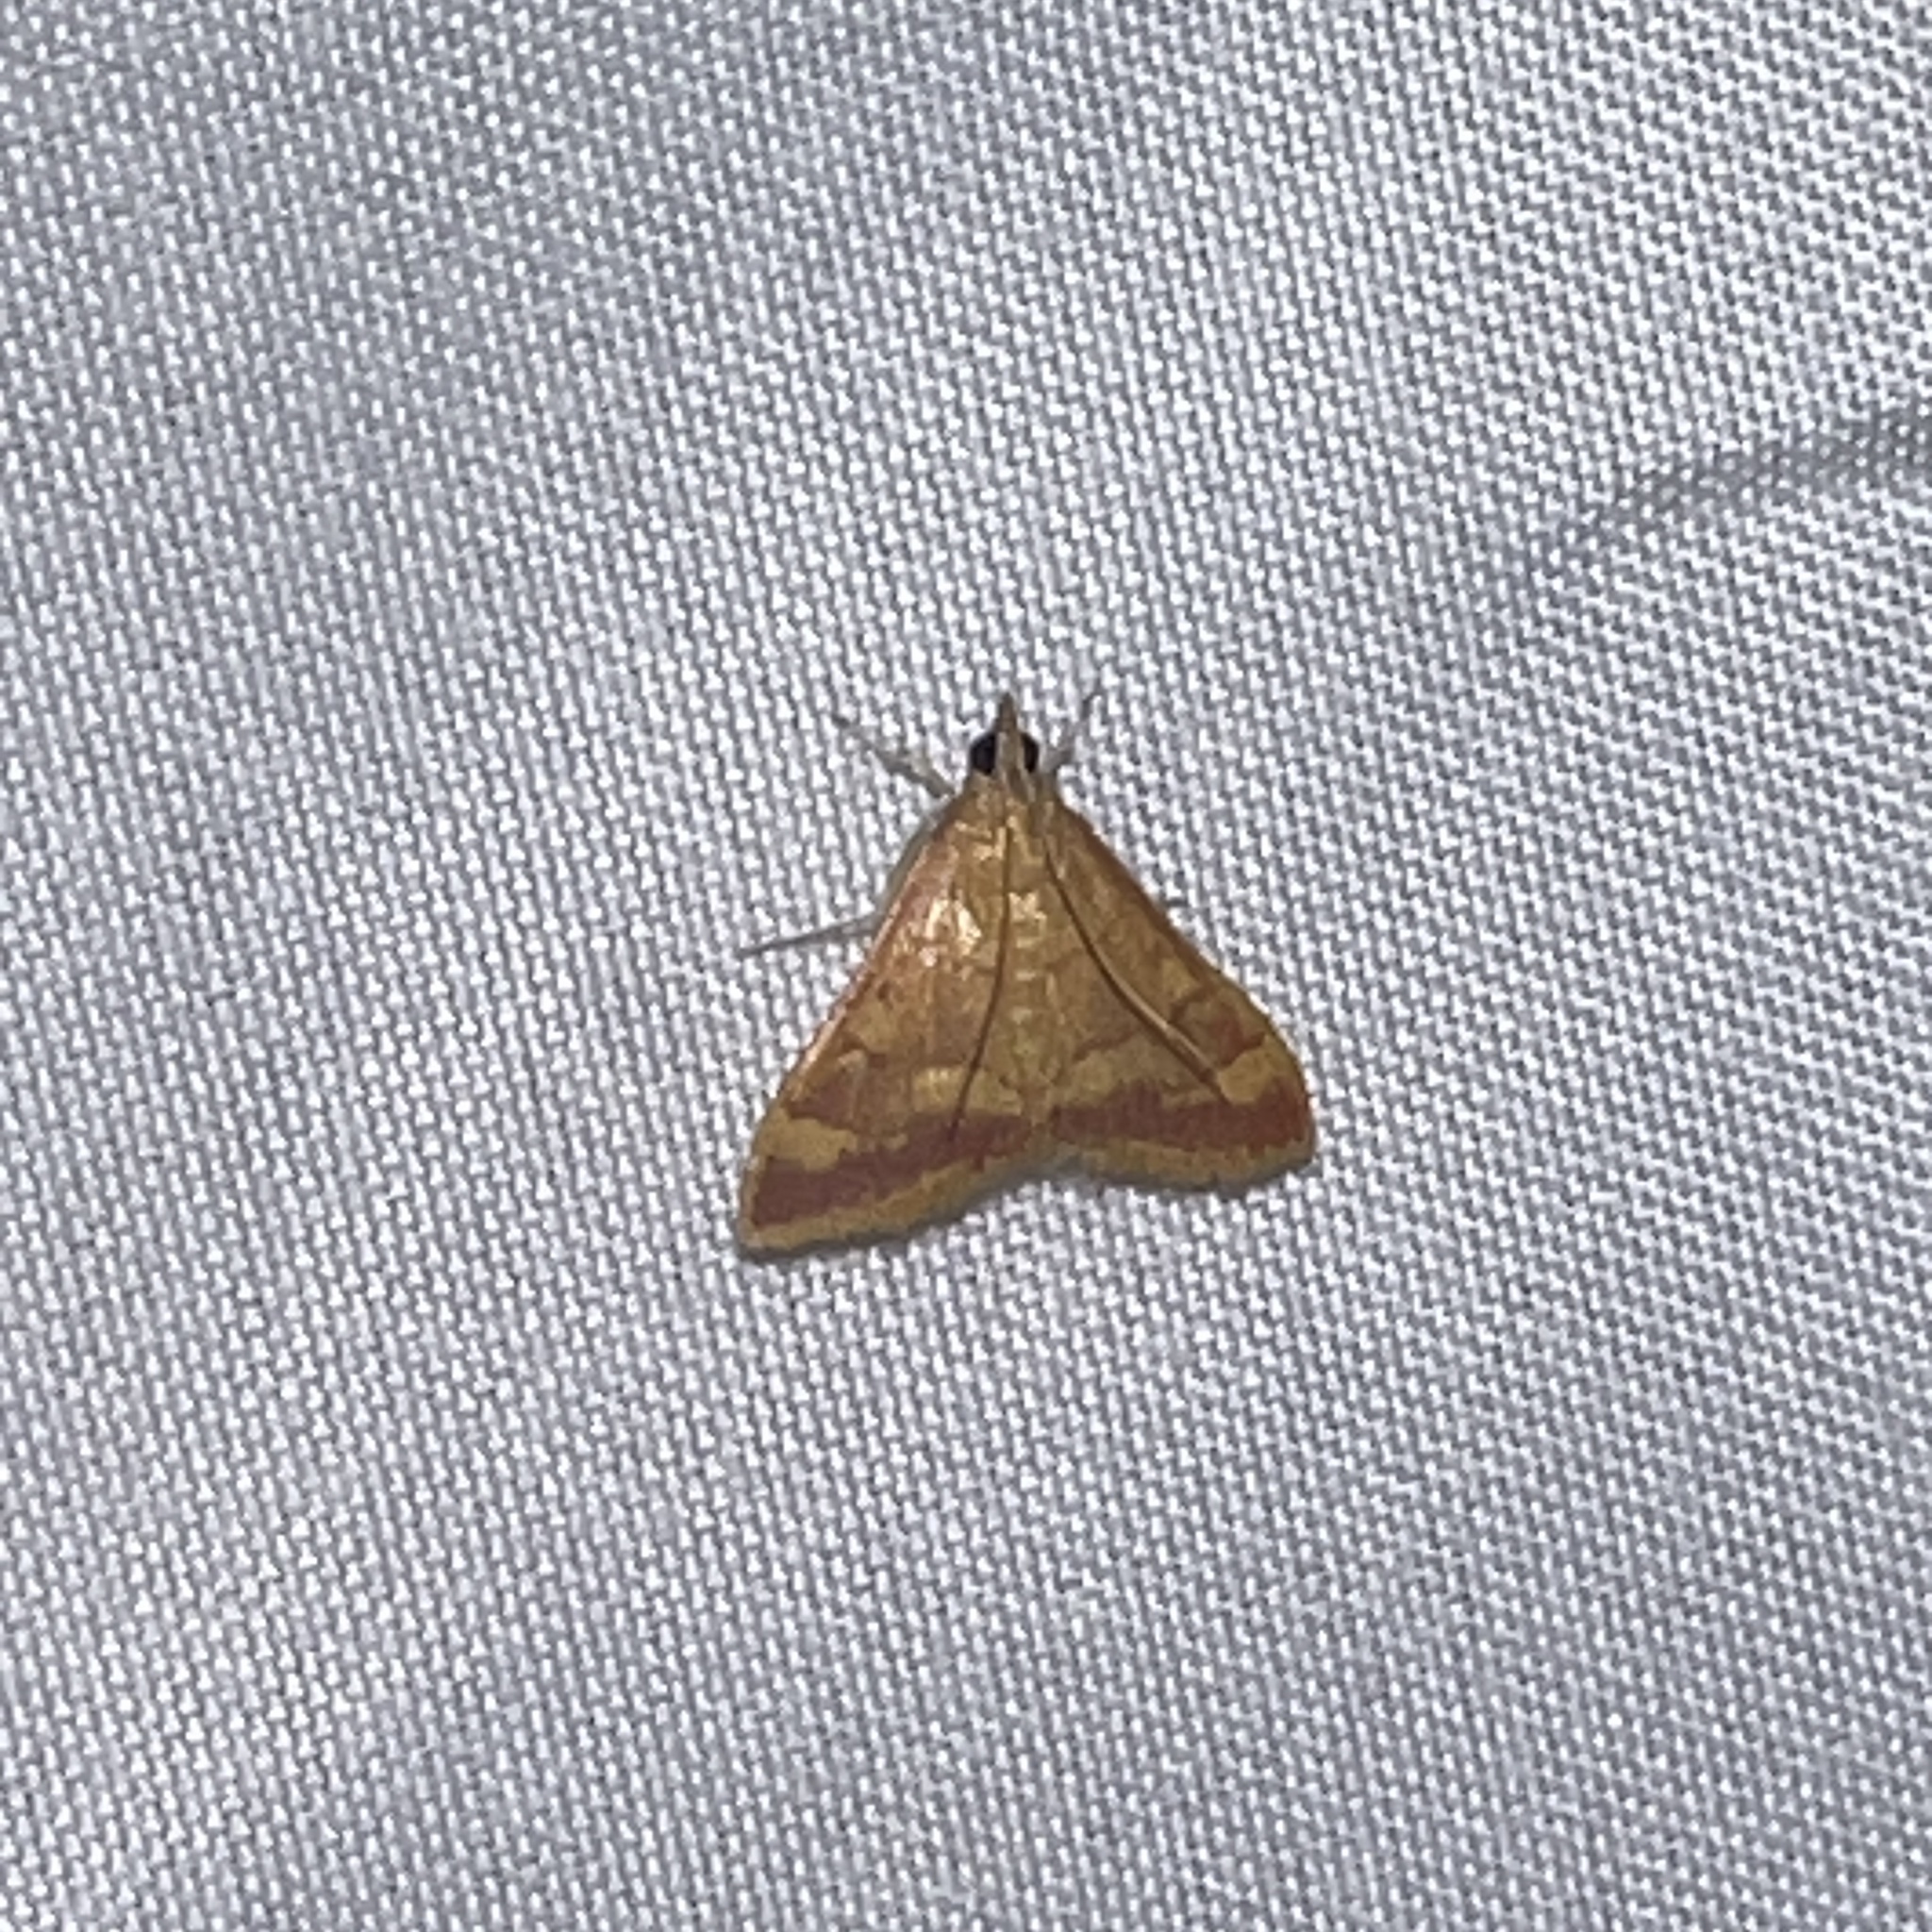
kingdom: Animalia
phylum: Arthropoda
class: Insecta
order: Lepidoptera
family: Crambidae
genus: Pyrausta
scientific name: Pyrausta pseudonythesalis
